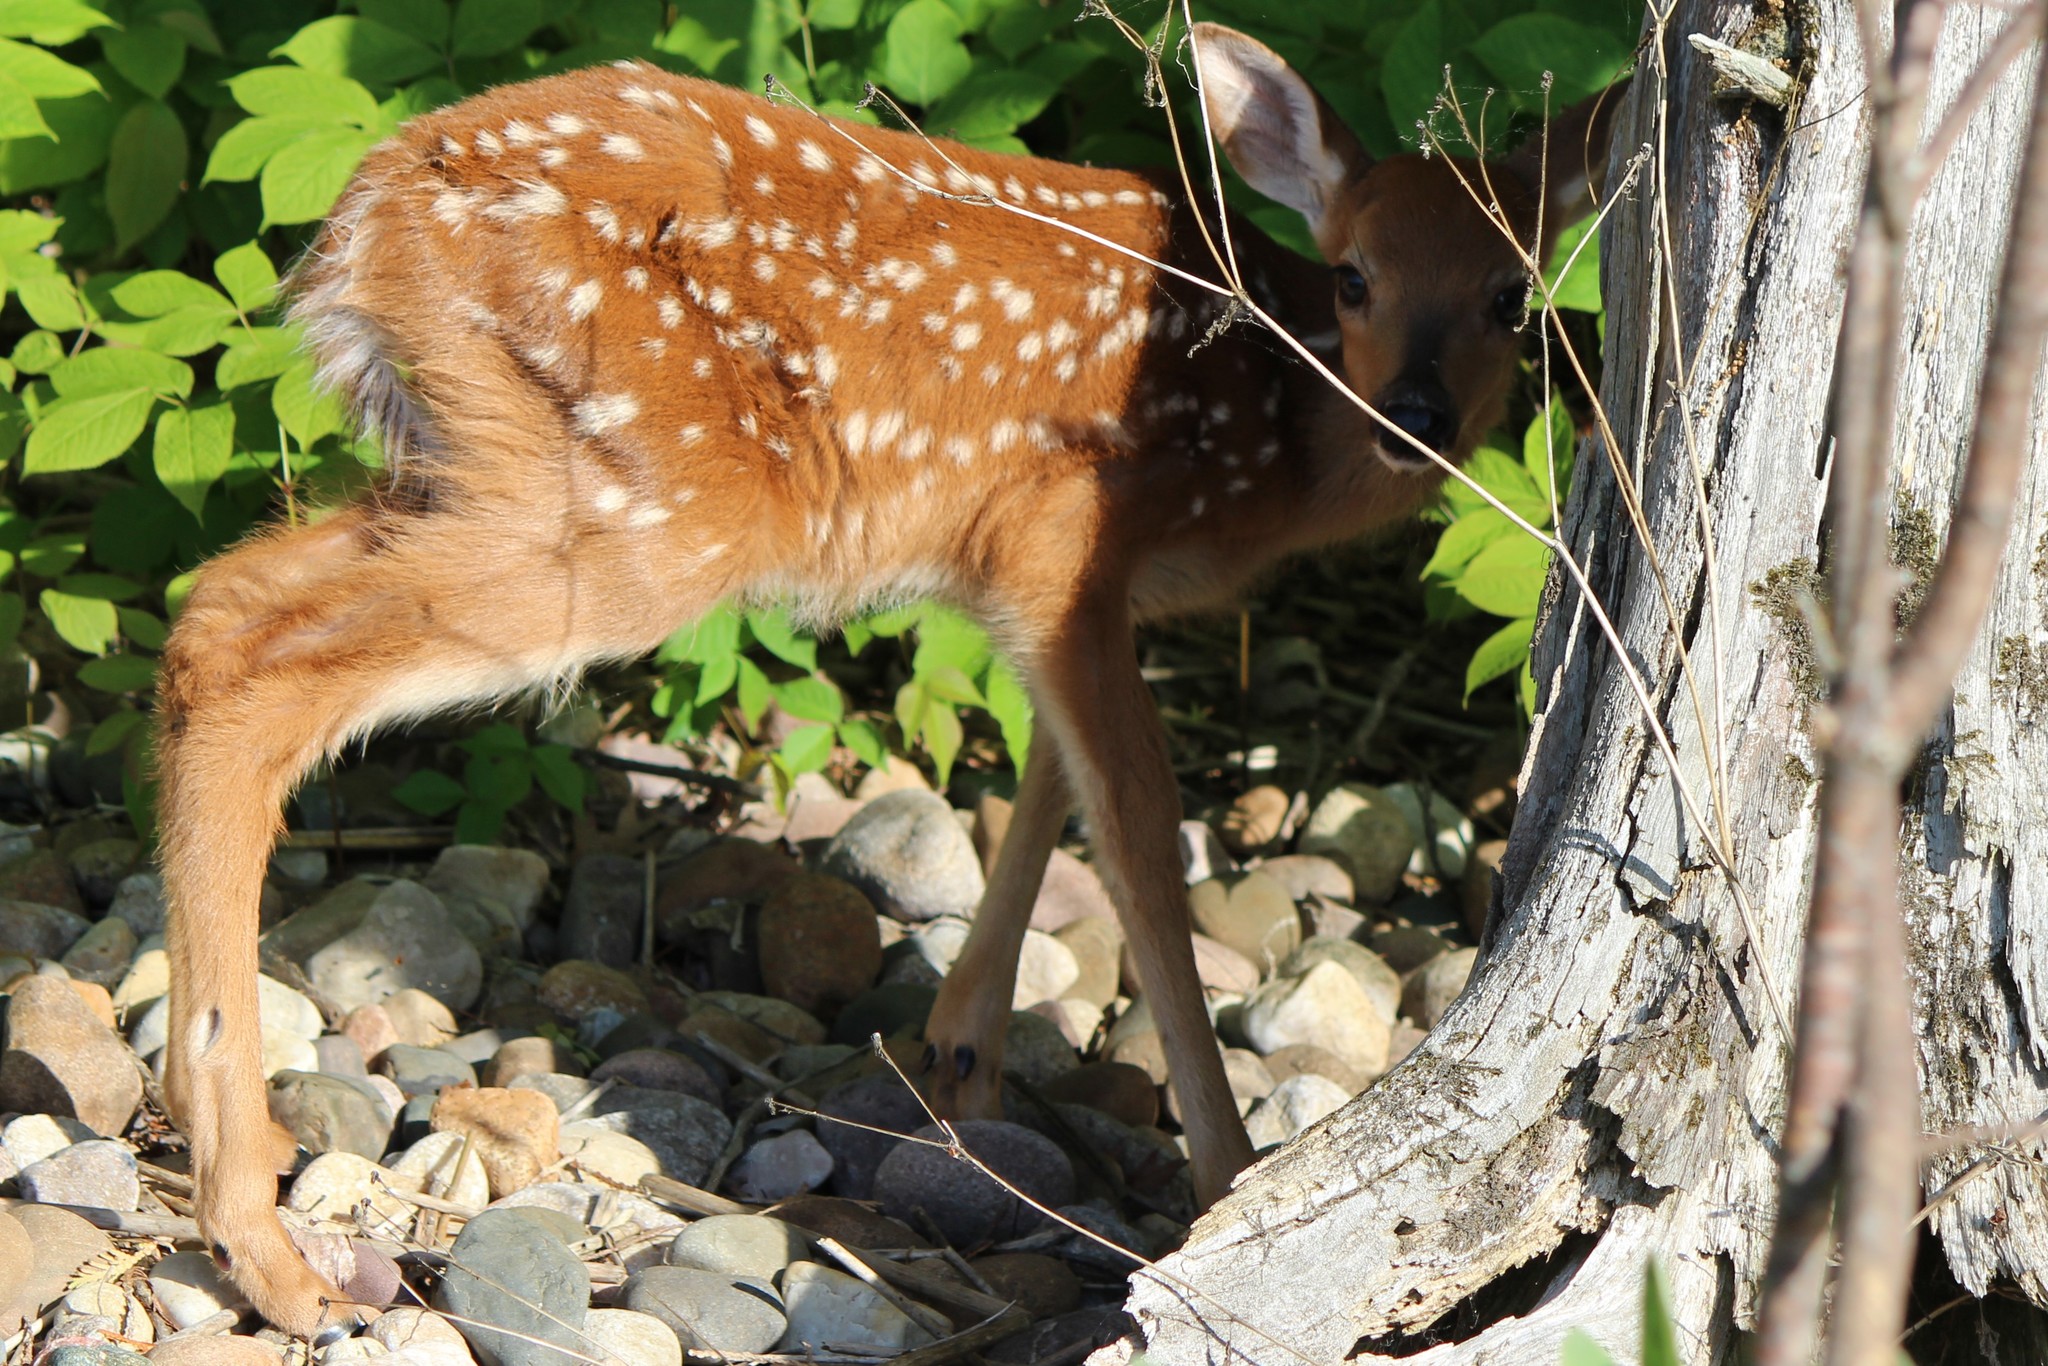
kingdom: Animalia
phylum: Chordata
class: Mammalia
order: Artiodactyla
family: Cervidae
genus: Odocoileus
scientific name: Odocoileus virginianus
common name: White-tailed deer
